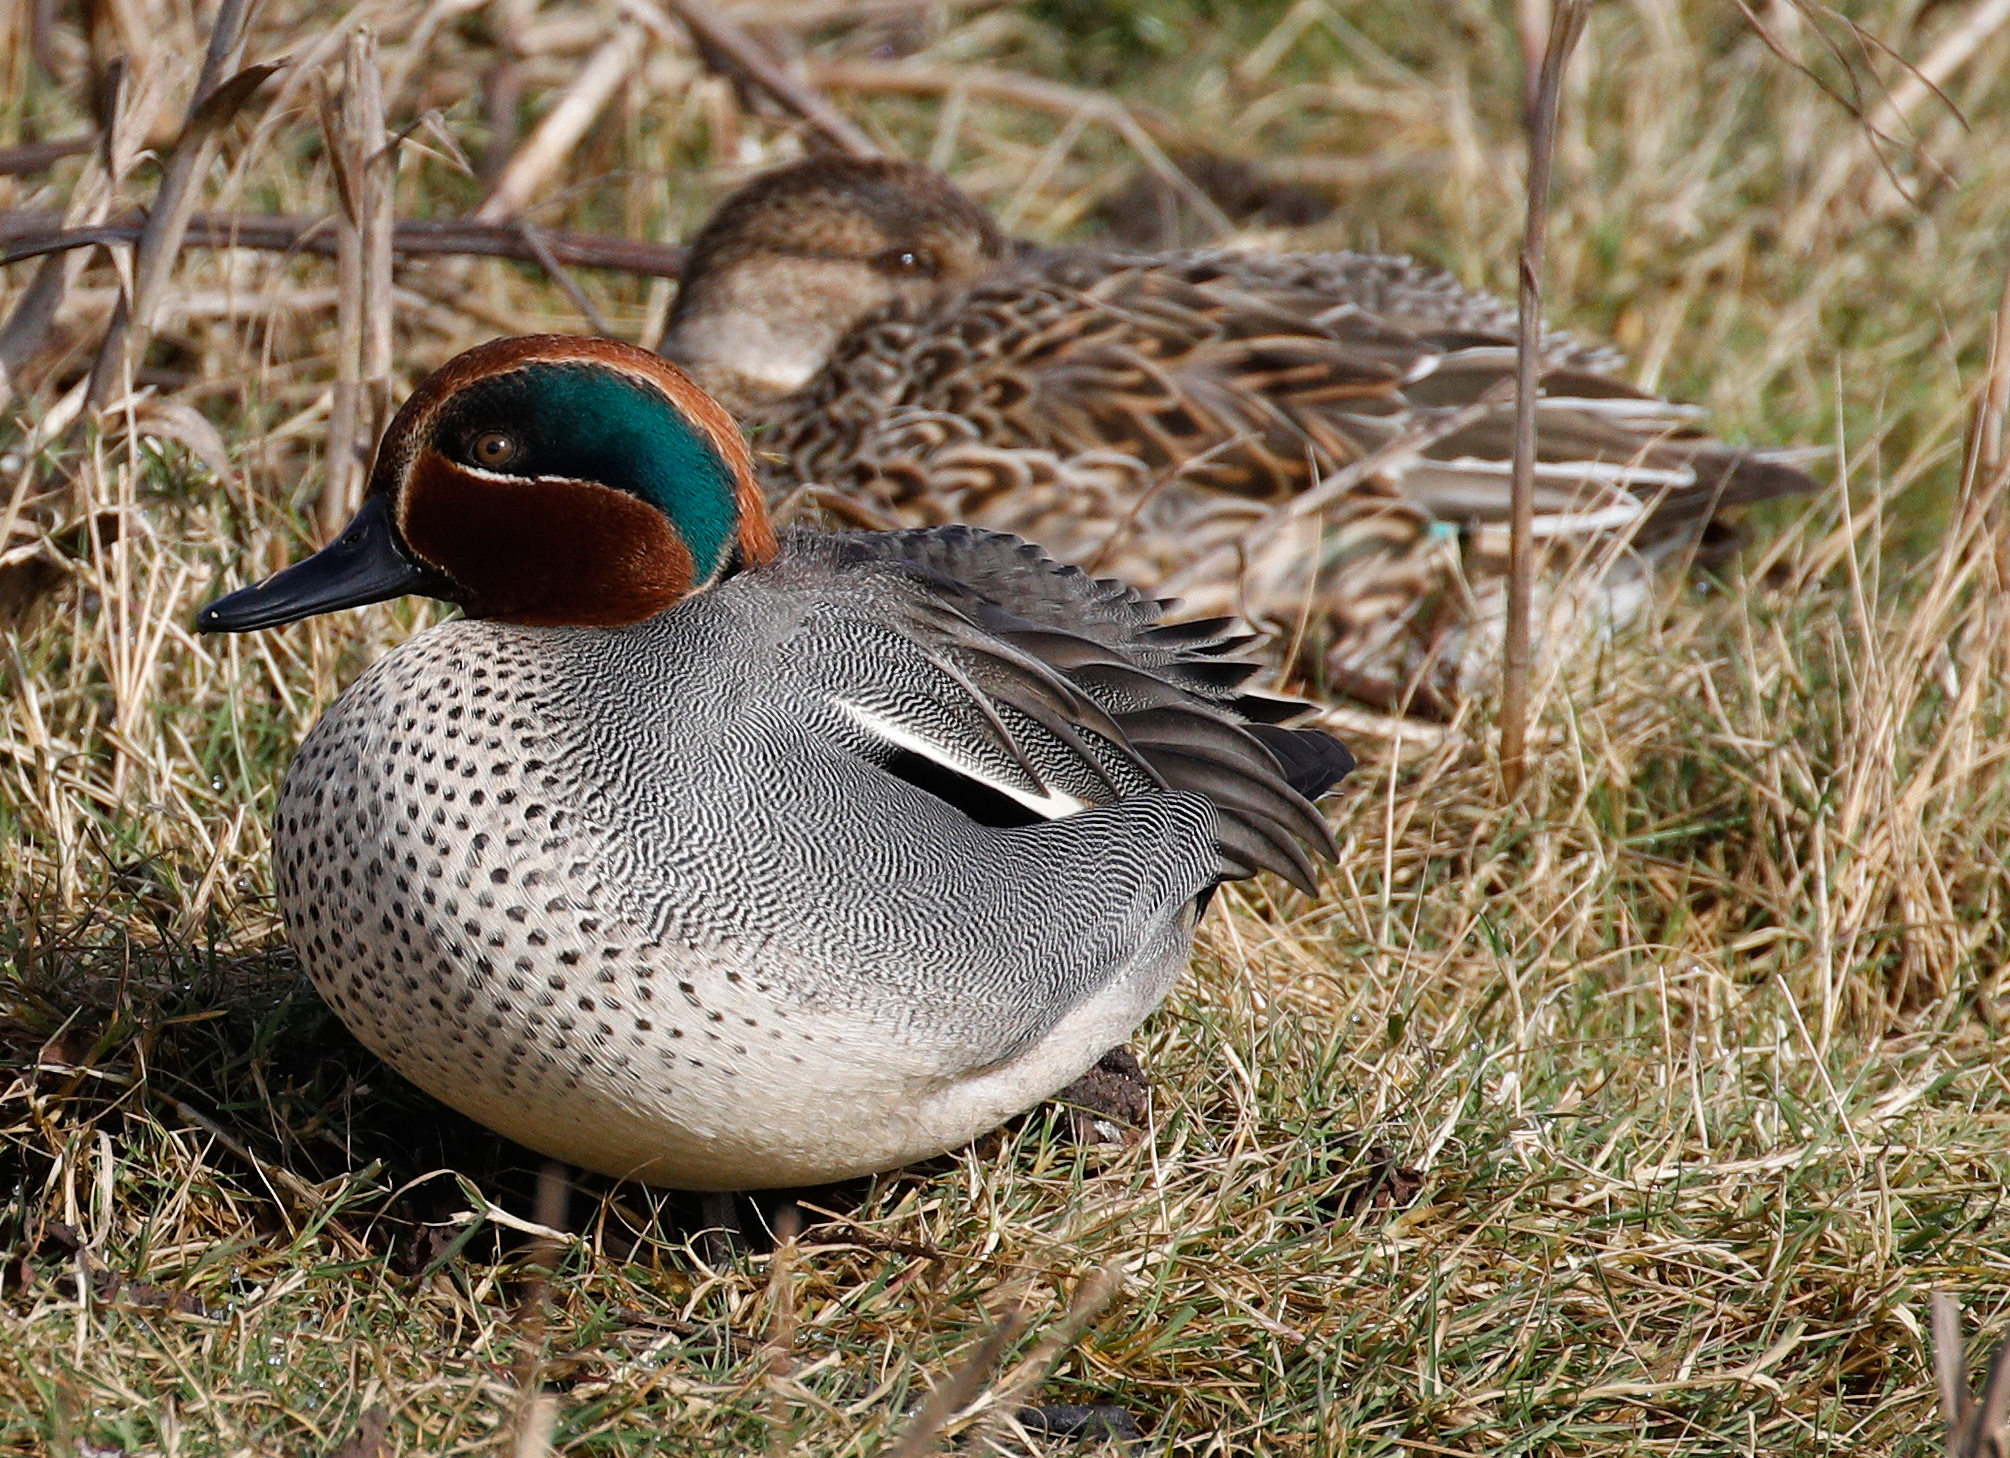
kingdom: Animalia
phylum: Chordata
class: Aves
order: Anseriformes
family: Anatidae
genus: Anas
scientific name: Anas crecca
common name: Eurasian teal
